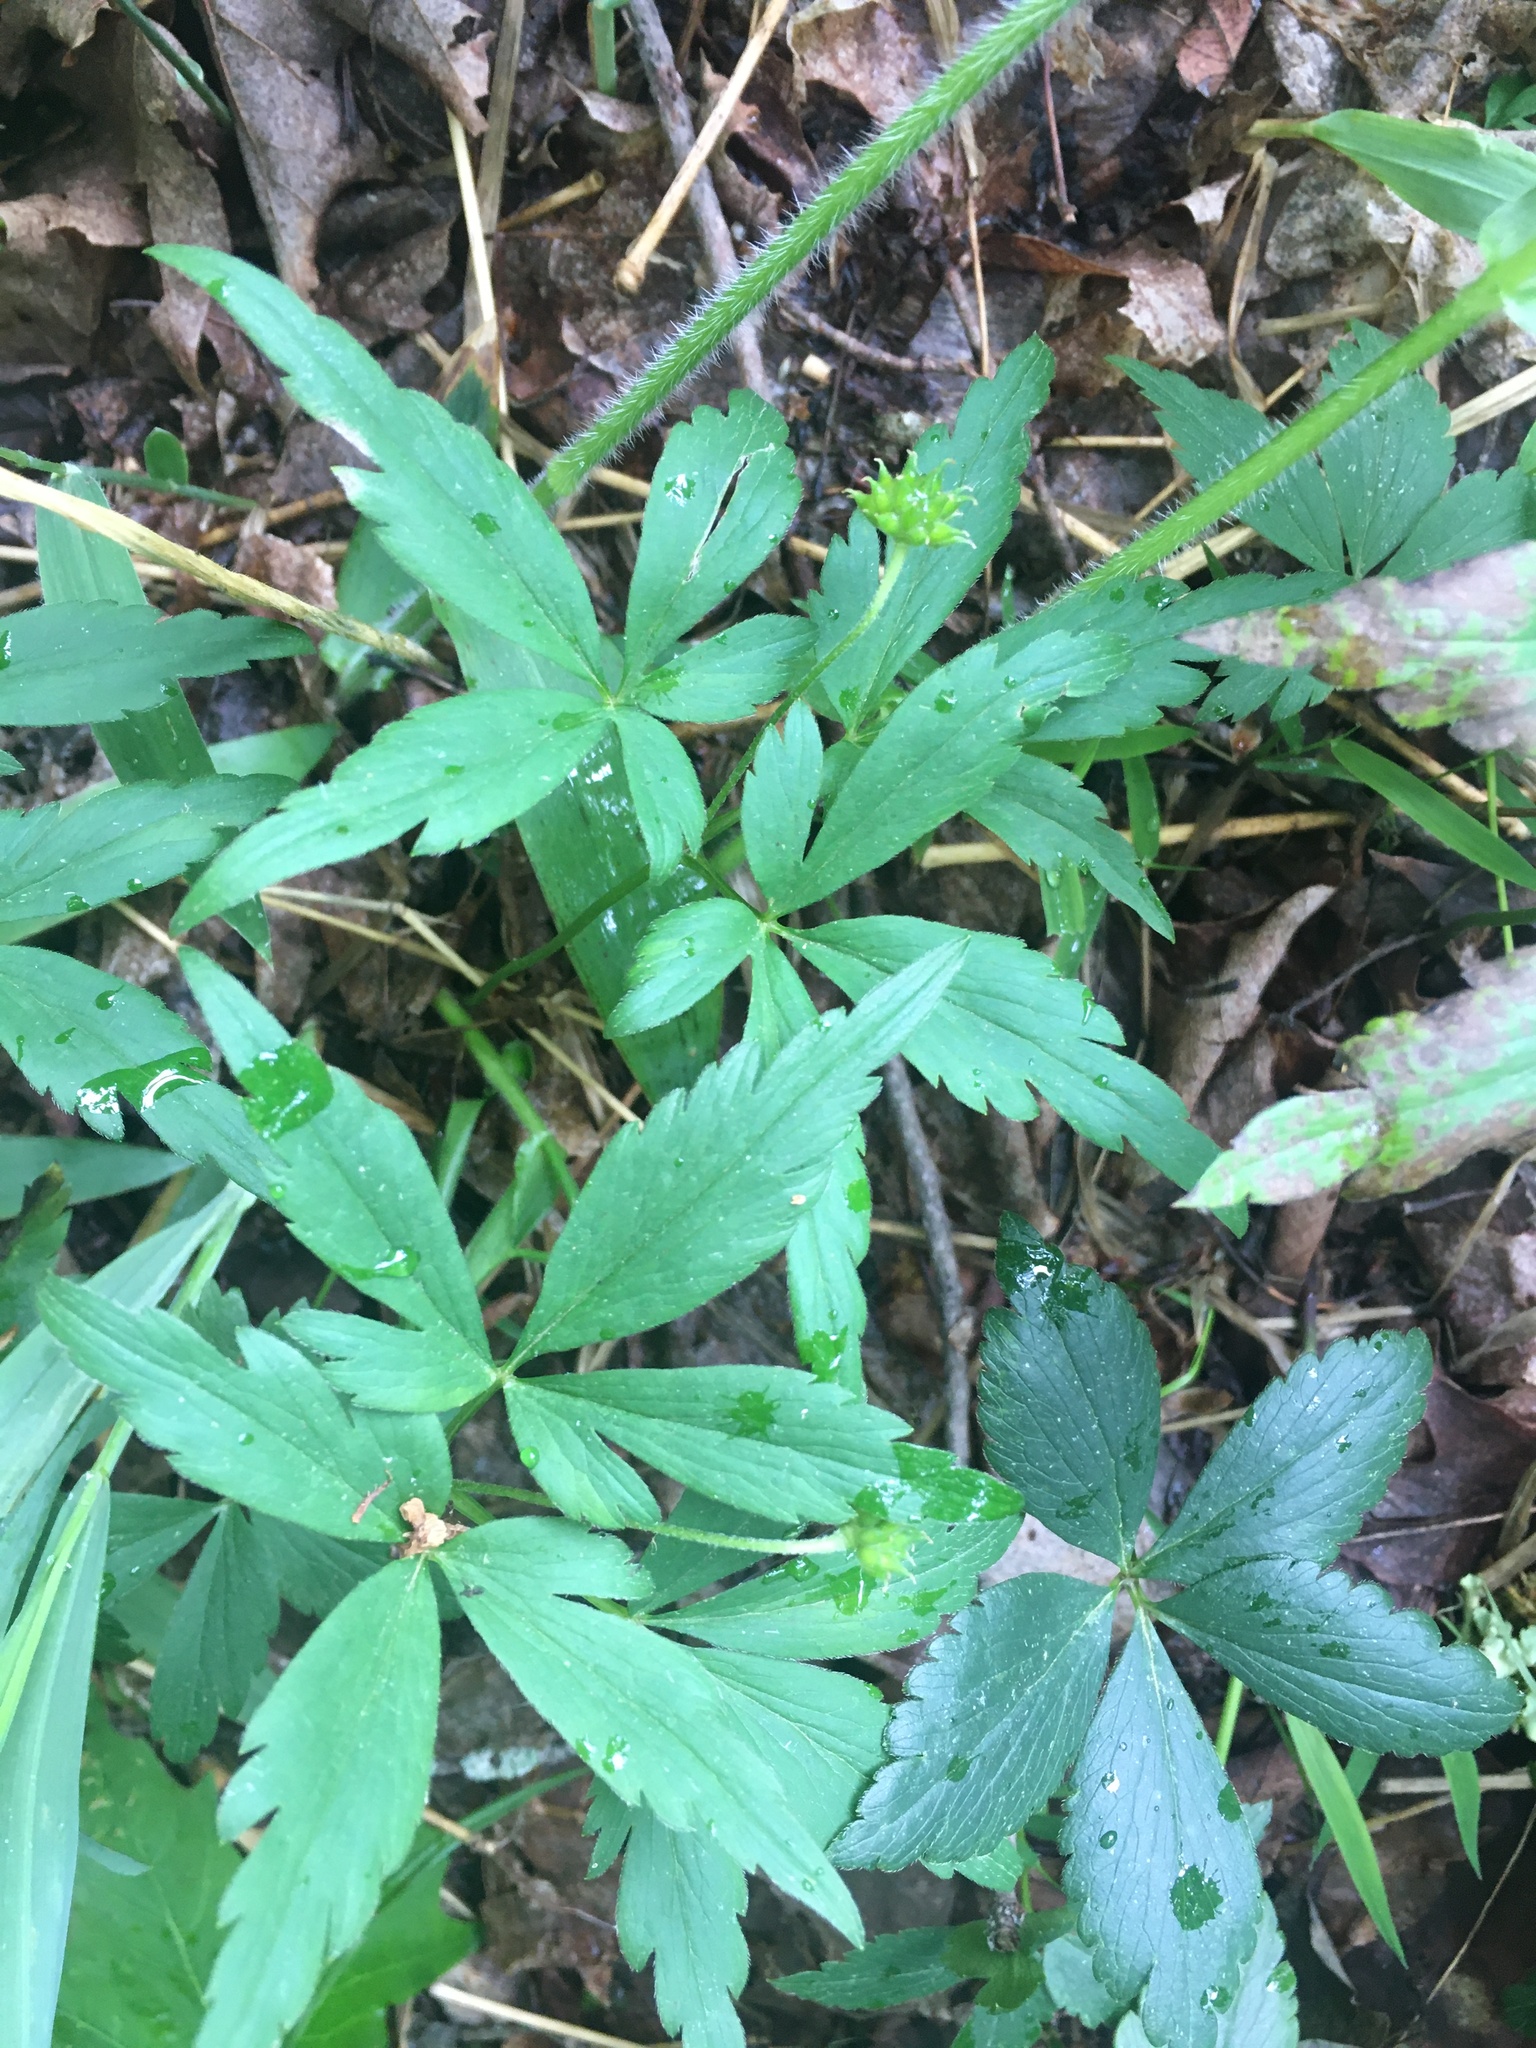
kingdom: Plantae
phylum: Tracheophyta
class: Magnoliopsida
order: Ranunculales
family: Ranunculaceae
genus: Anemone
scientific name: Anemone quinquefolia
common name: Wood anemone
